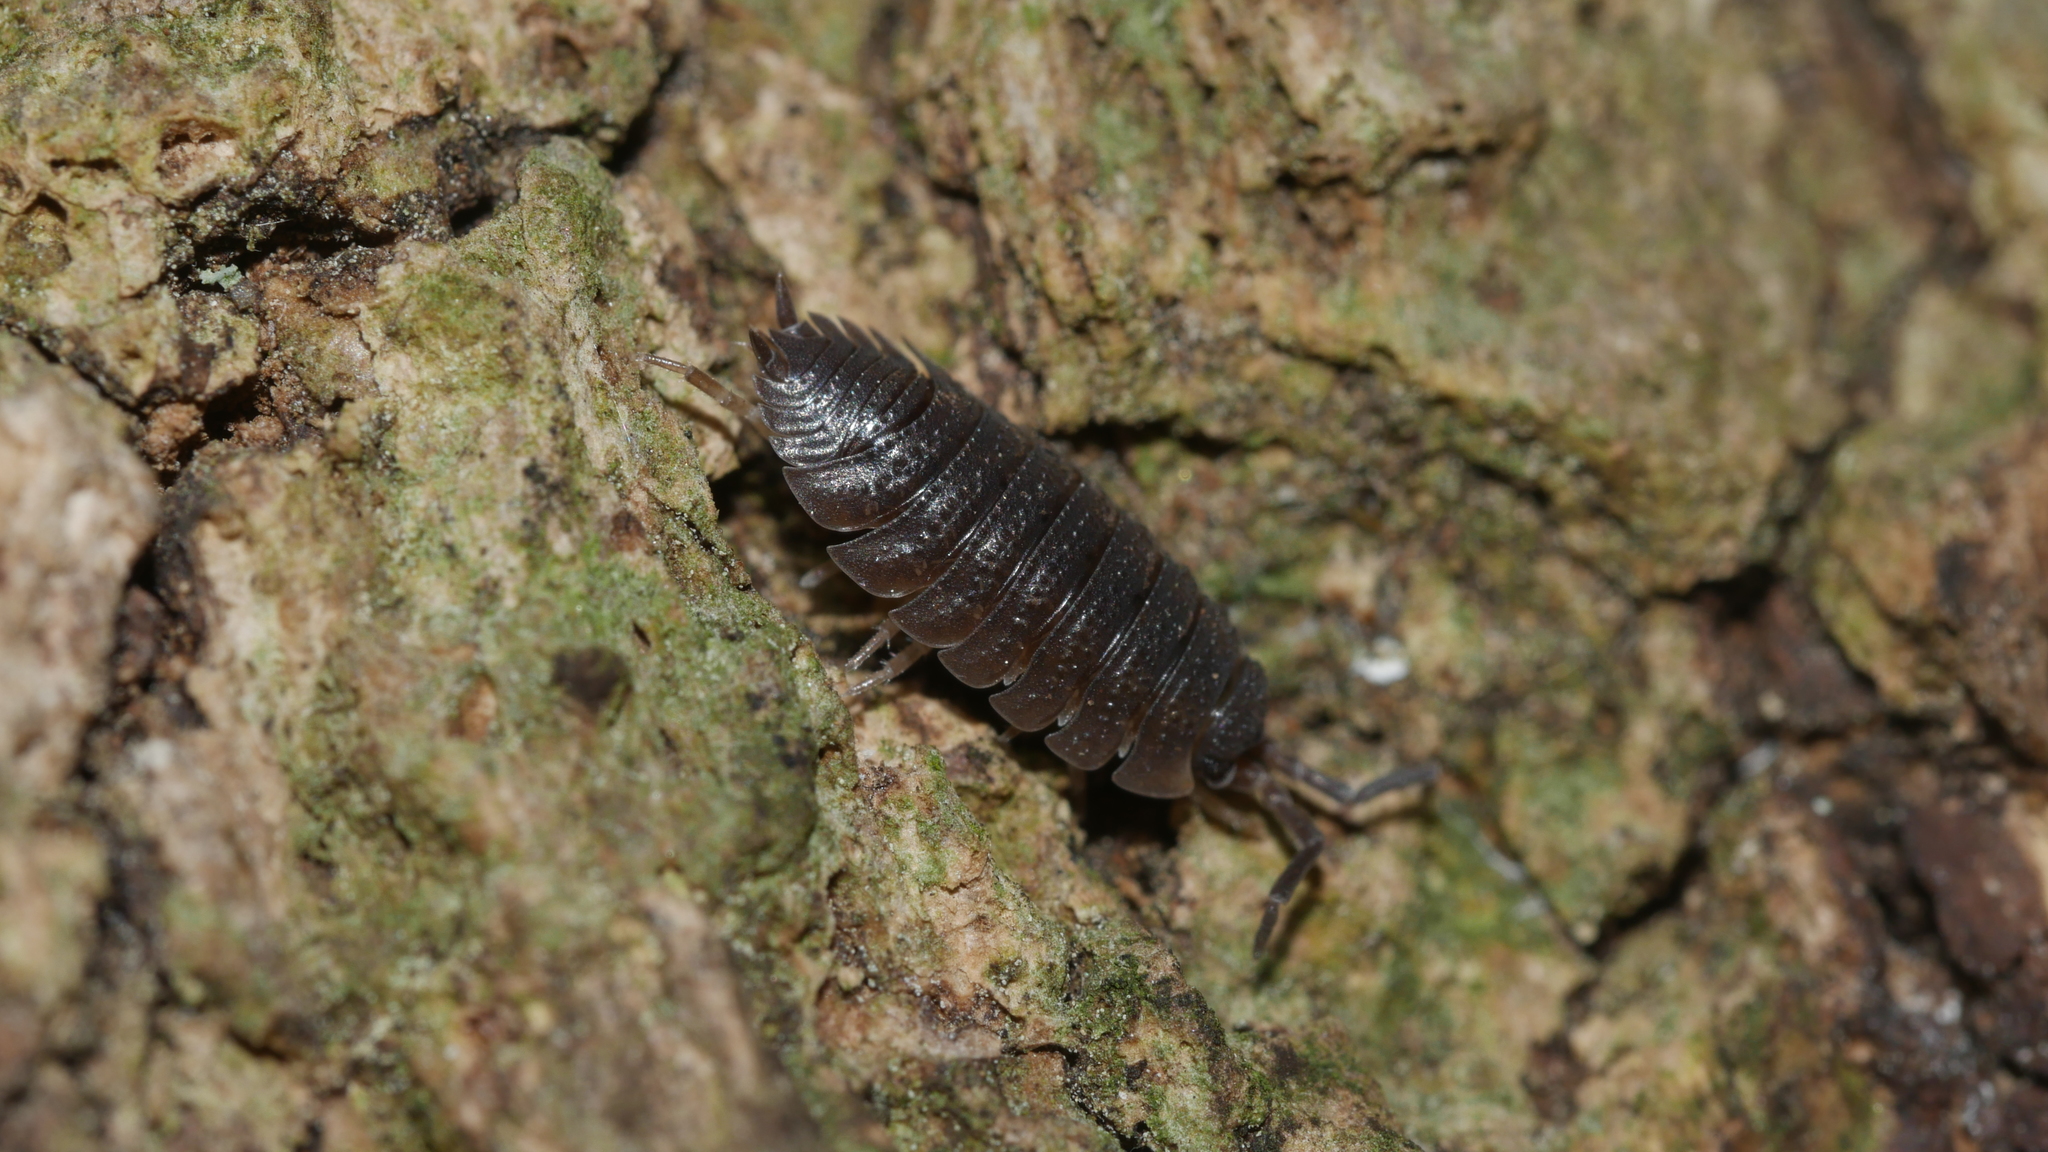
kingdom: Animalia
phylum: Arthropoda
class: Malacostraca
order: Isopoda
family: Porcellionidae
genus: Porcellio
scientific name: Porcellio scaber
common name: Common rough woodlouse
